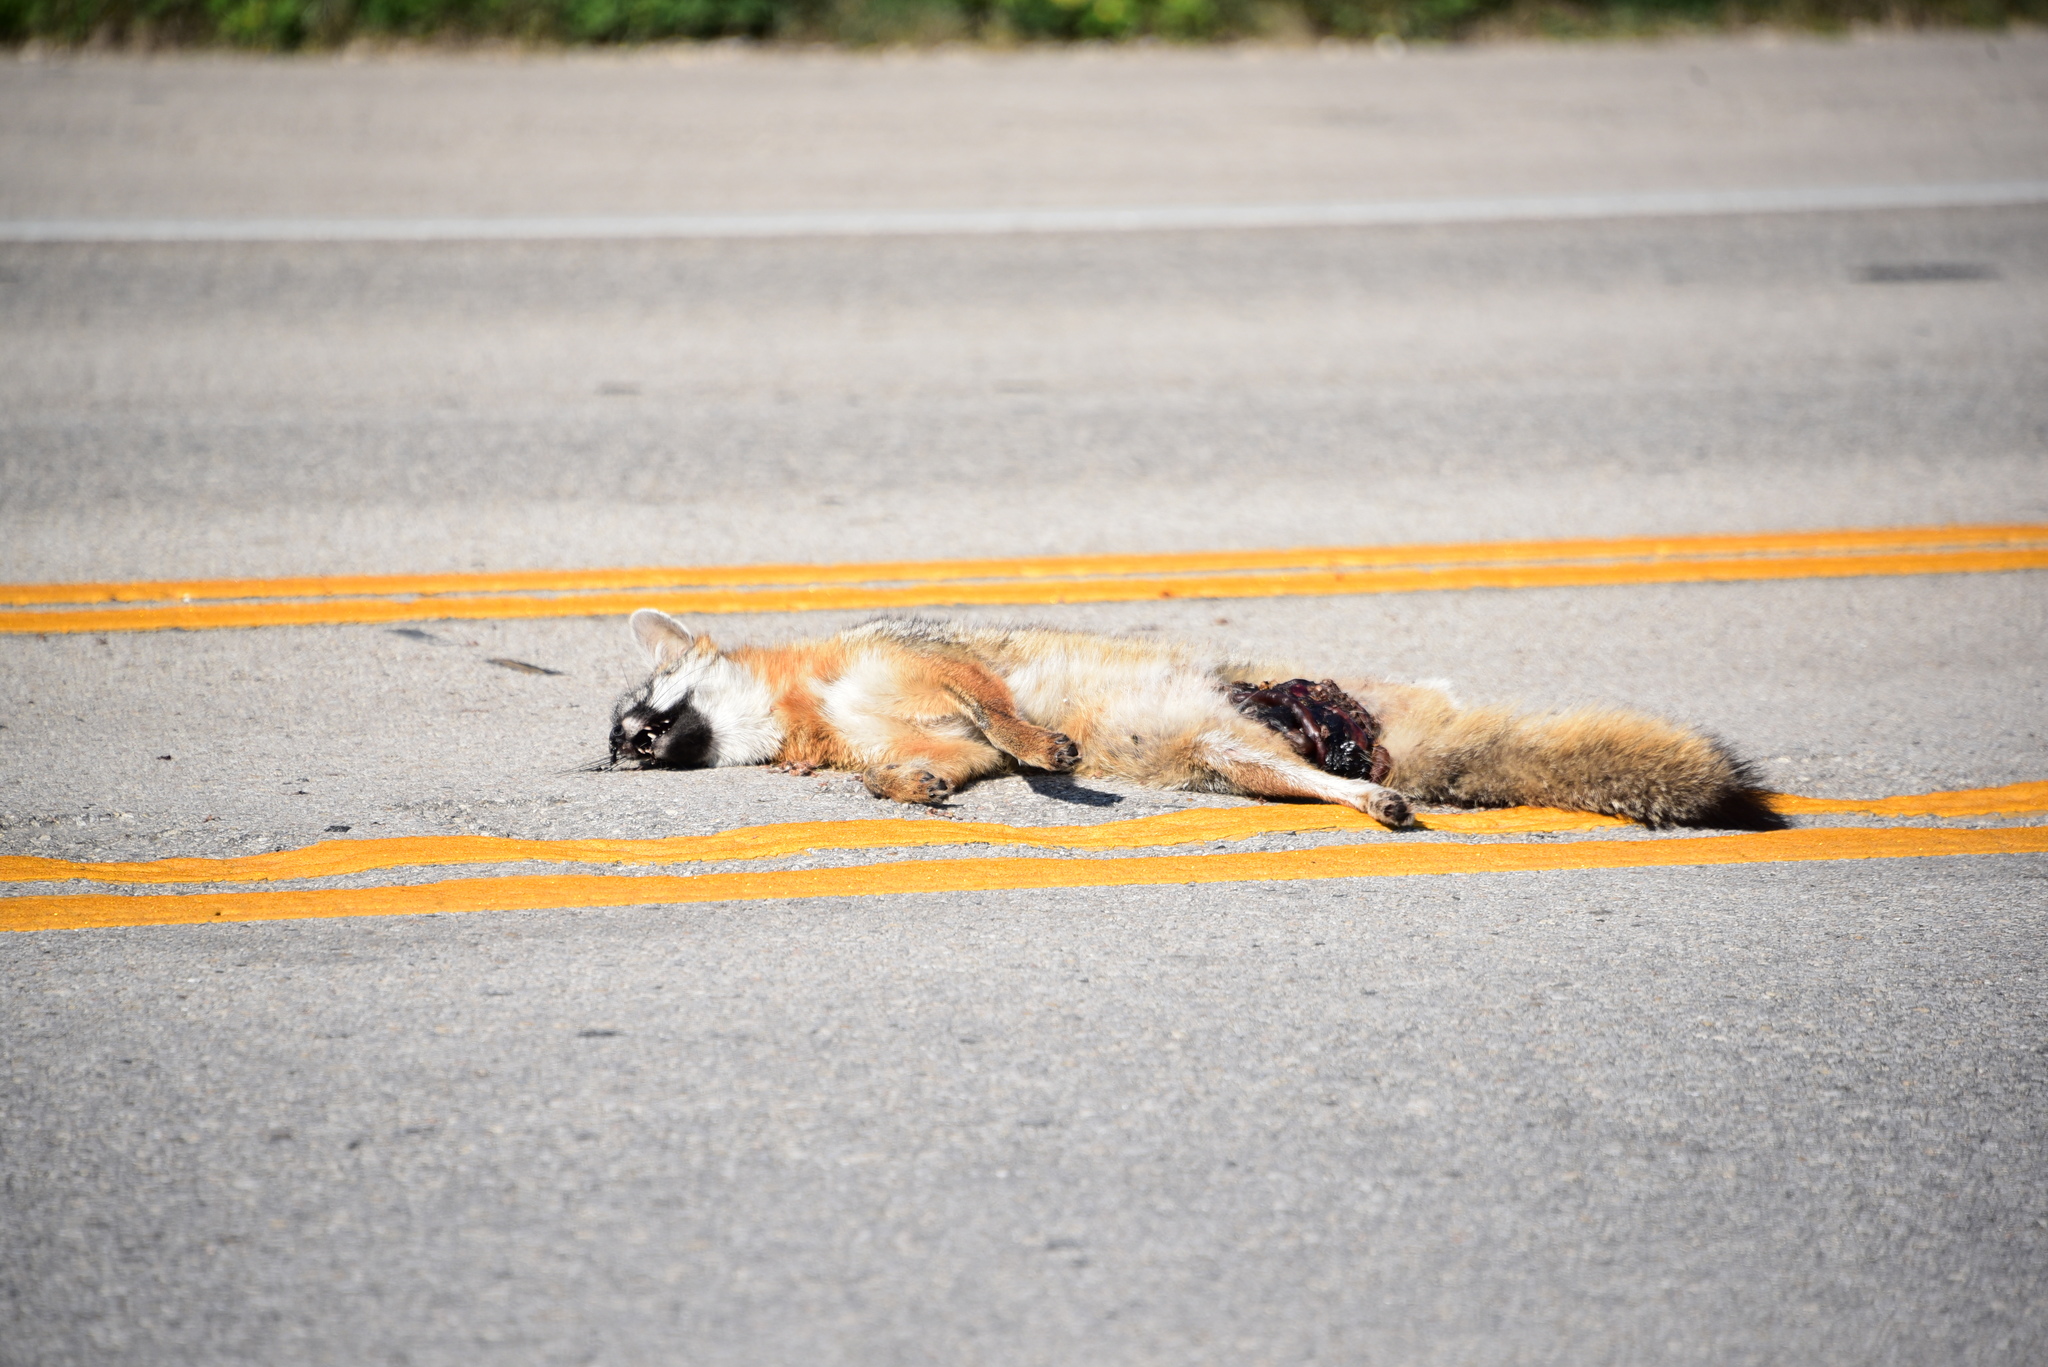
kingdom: Animalia
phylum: Chordata
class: Mammalia
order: Carnivora
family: Canidae
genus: Urocyon
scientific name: Urocyon cinereoargenteus
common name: Gray fox
